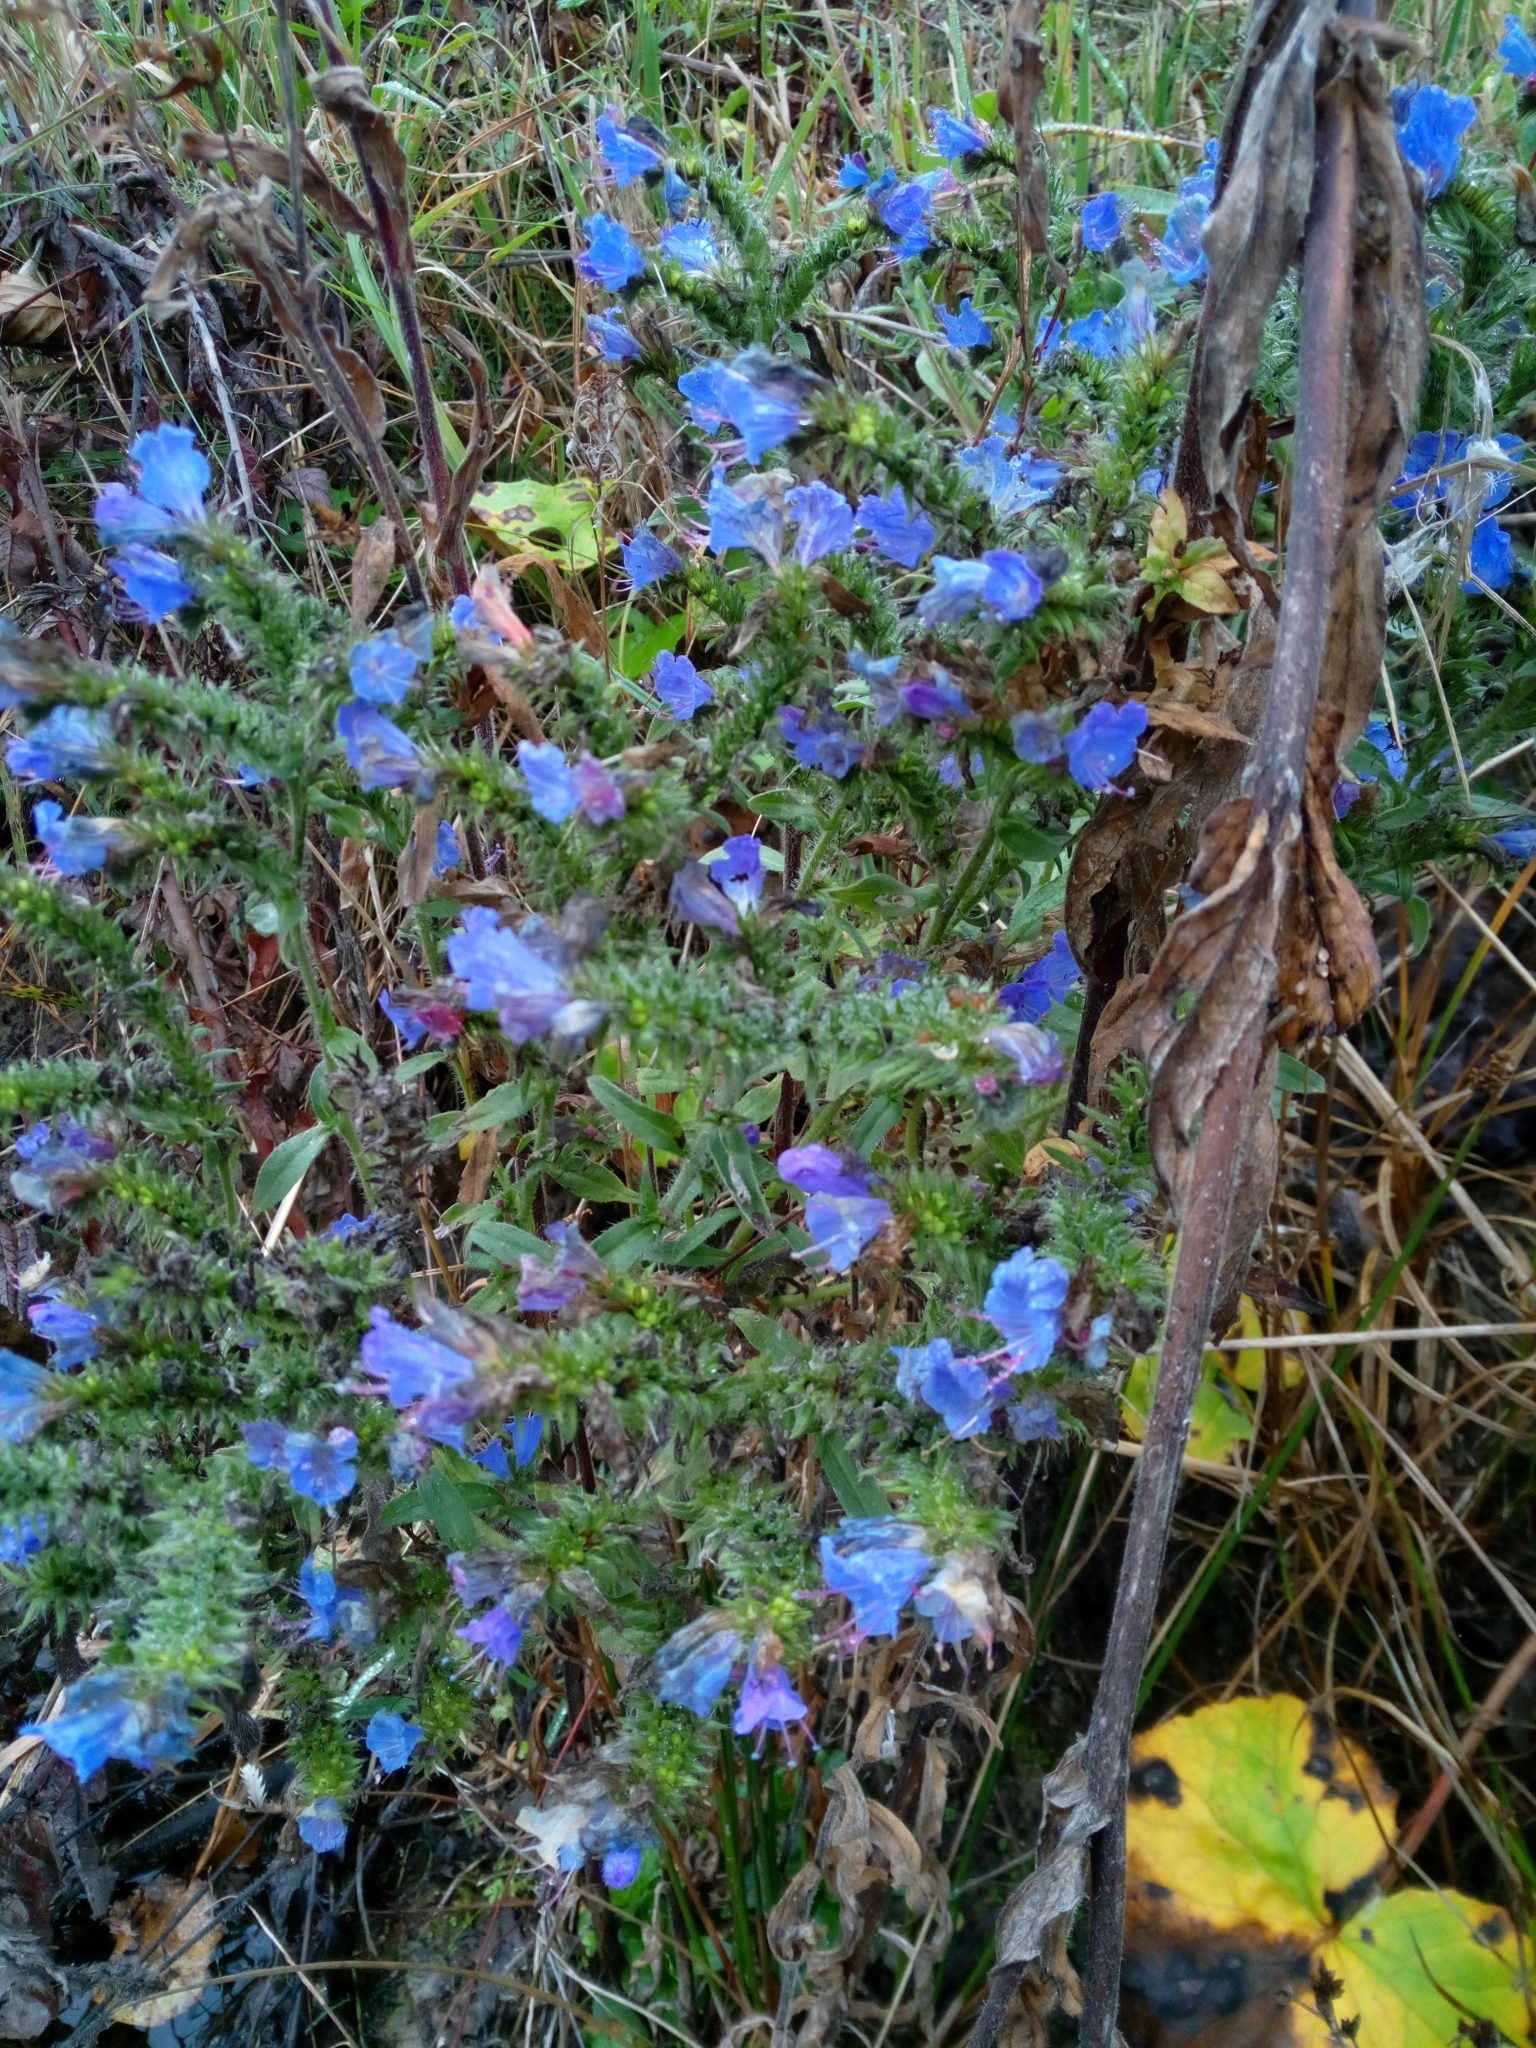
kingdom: Plantae
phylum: Tracheophyta
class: Magnoliopsida
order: Boraginales
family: Boraginaceae
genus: Echium
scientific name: Echium vulgare
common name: Common viper's bugloss
